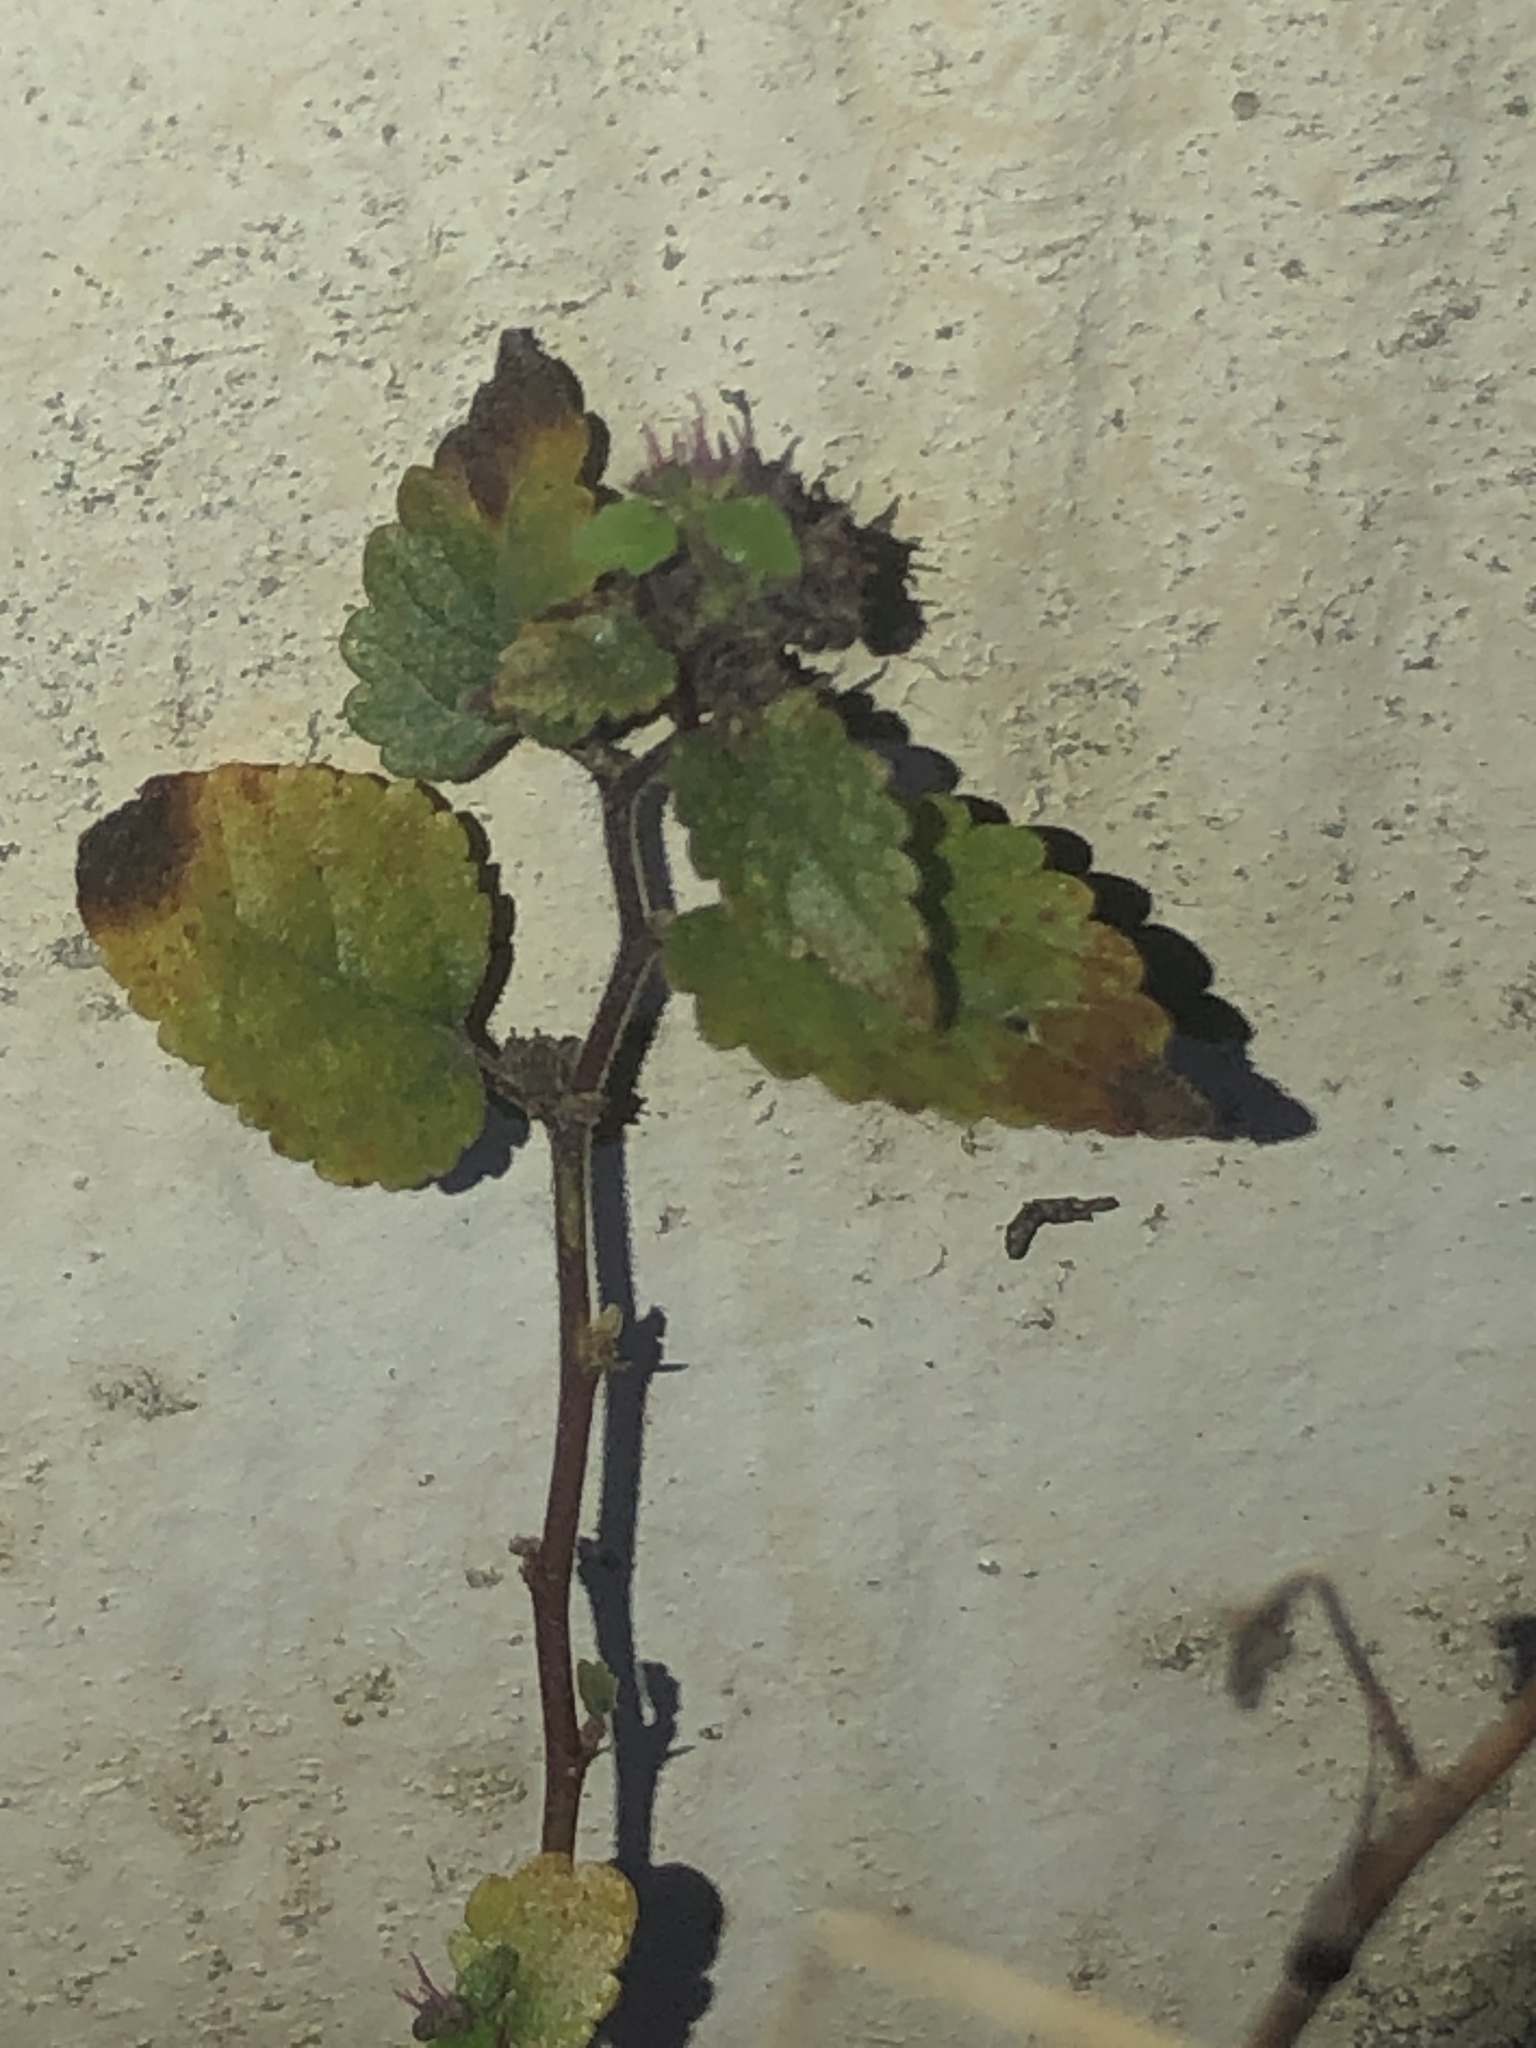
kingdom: Plantae
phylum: Tracheophyta
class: Magnoliopsida
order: Rosales
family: Moraceae
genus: Fatoua
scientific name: Fatoua villosa
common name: Hairy crabweed
